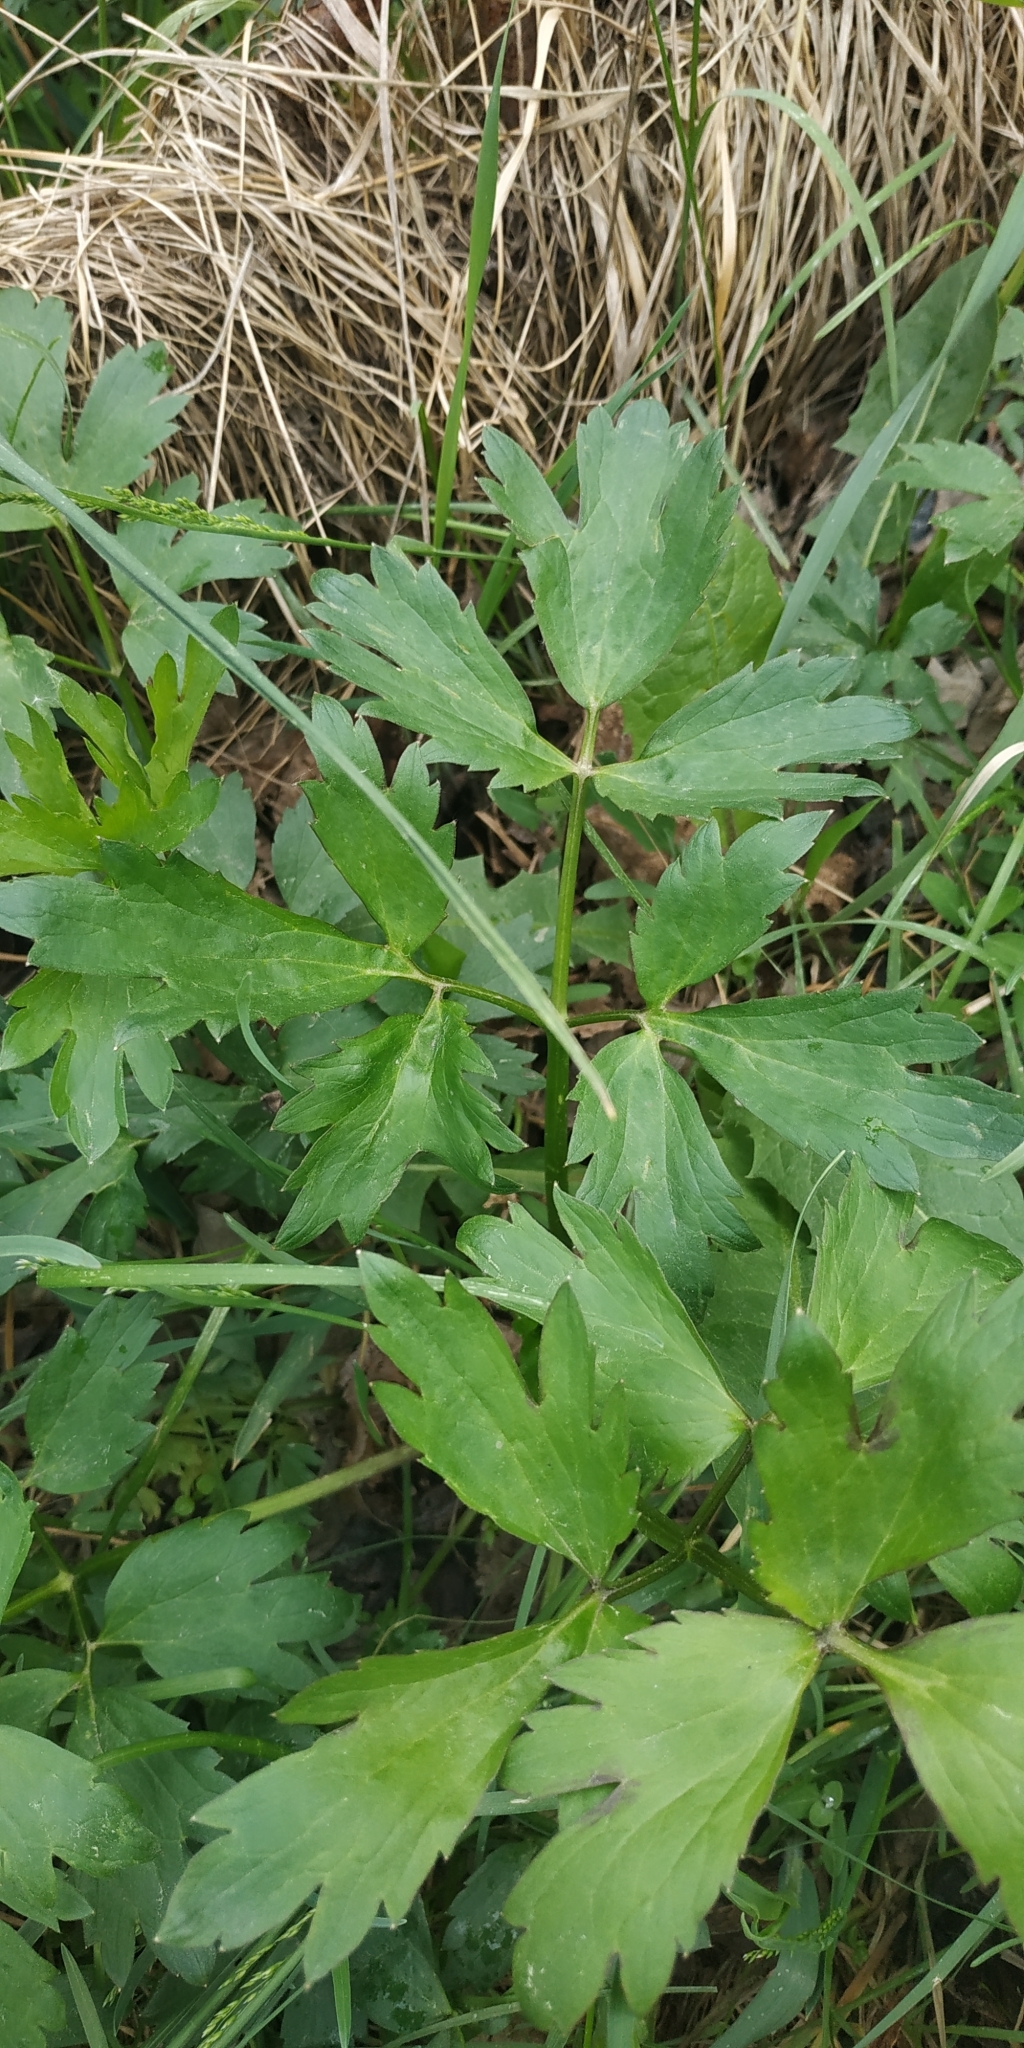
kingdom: Plantae
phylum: Tracheophyta
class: Magnoliopsida
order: Ranunculales
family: Ranunculaceae
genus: Ranunculus
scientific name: Ranunculus repens
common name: Creeping buttercup
